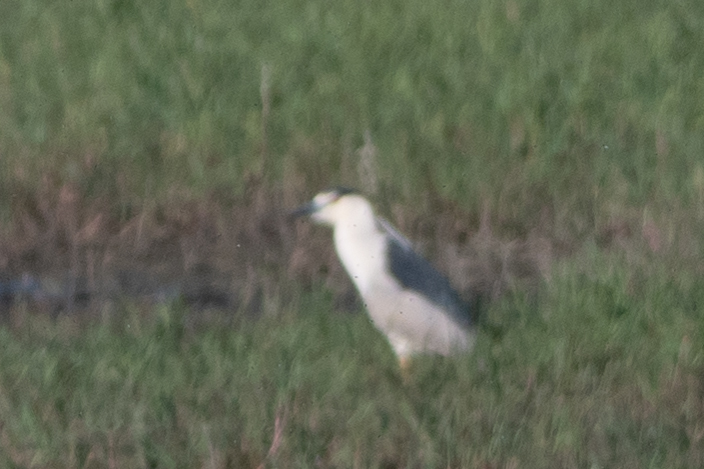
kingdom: Animalia
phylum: Chordata
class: Aves
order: Pelecaniformes
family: Ardeidae
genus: Nycticorax
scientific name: Nycticorax nycticorax
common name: Black-crowned night heron
